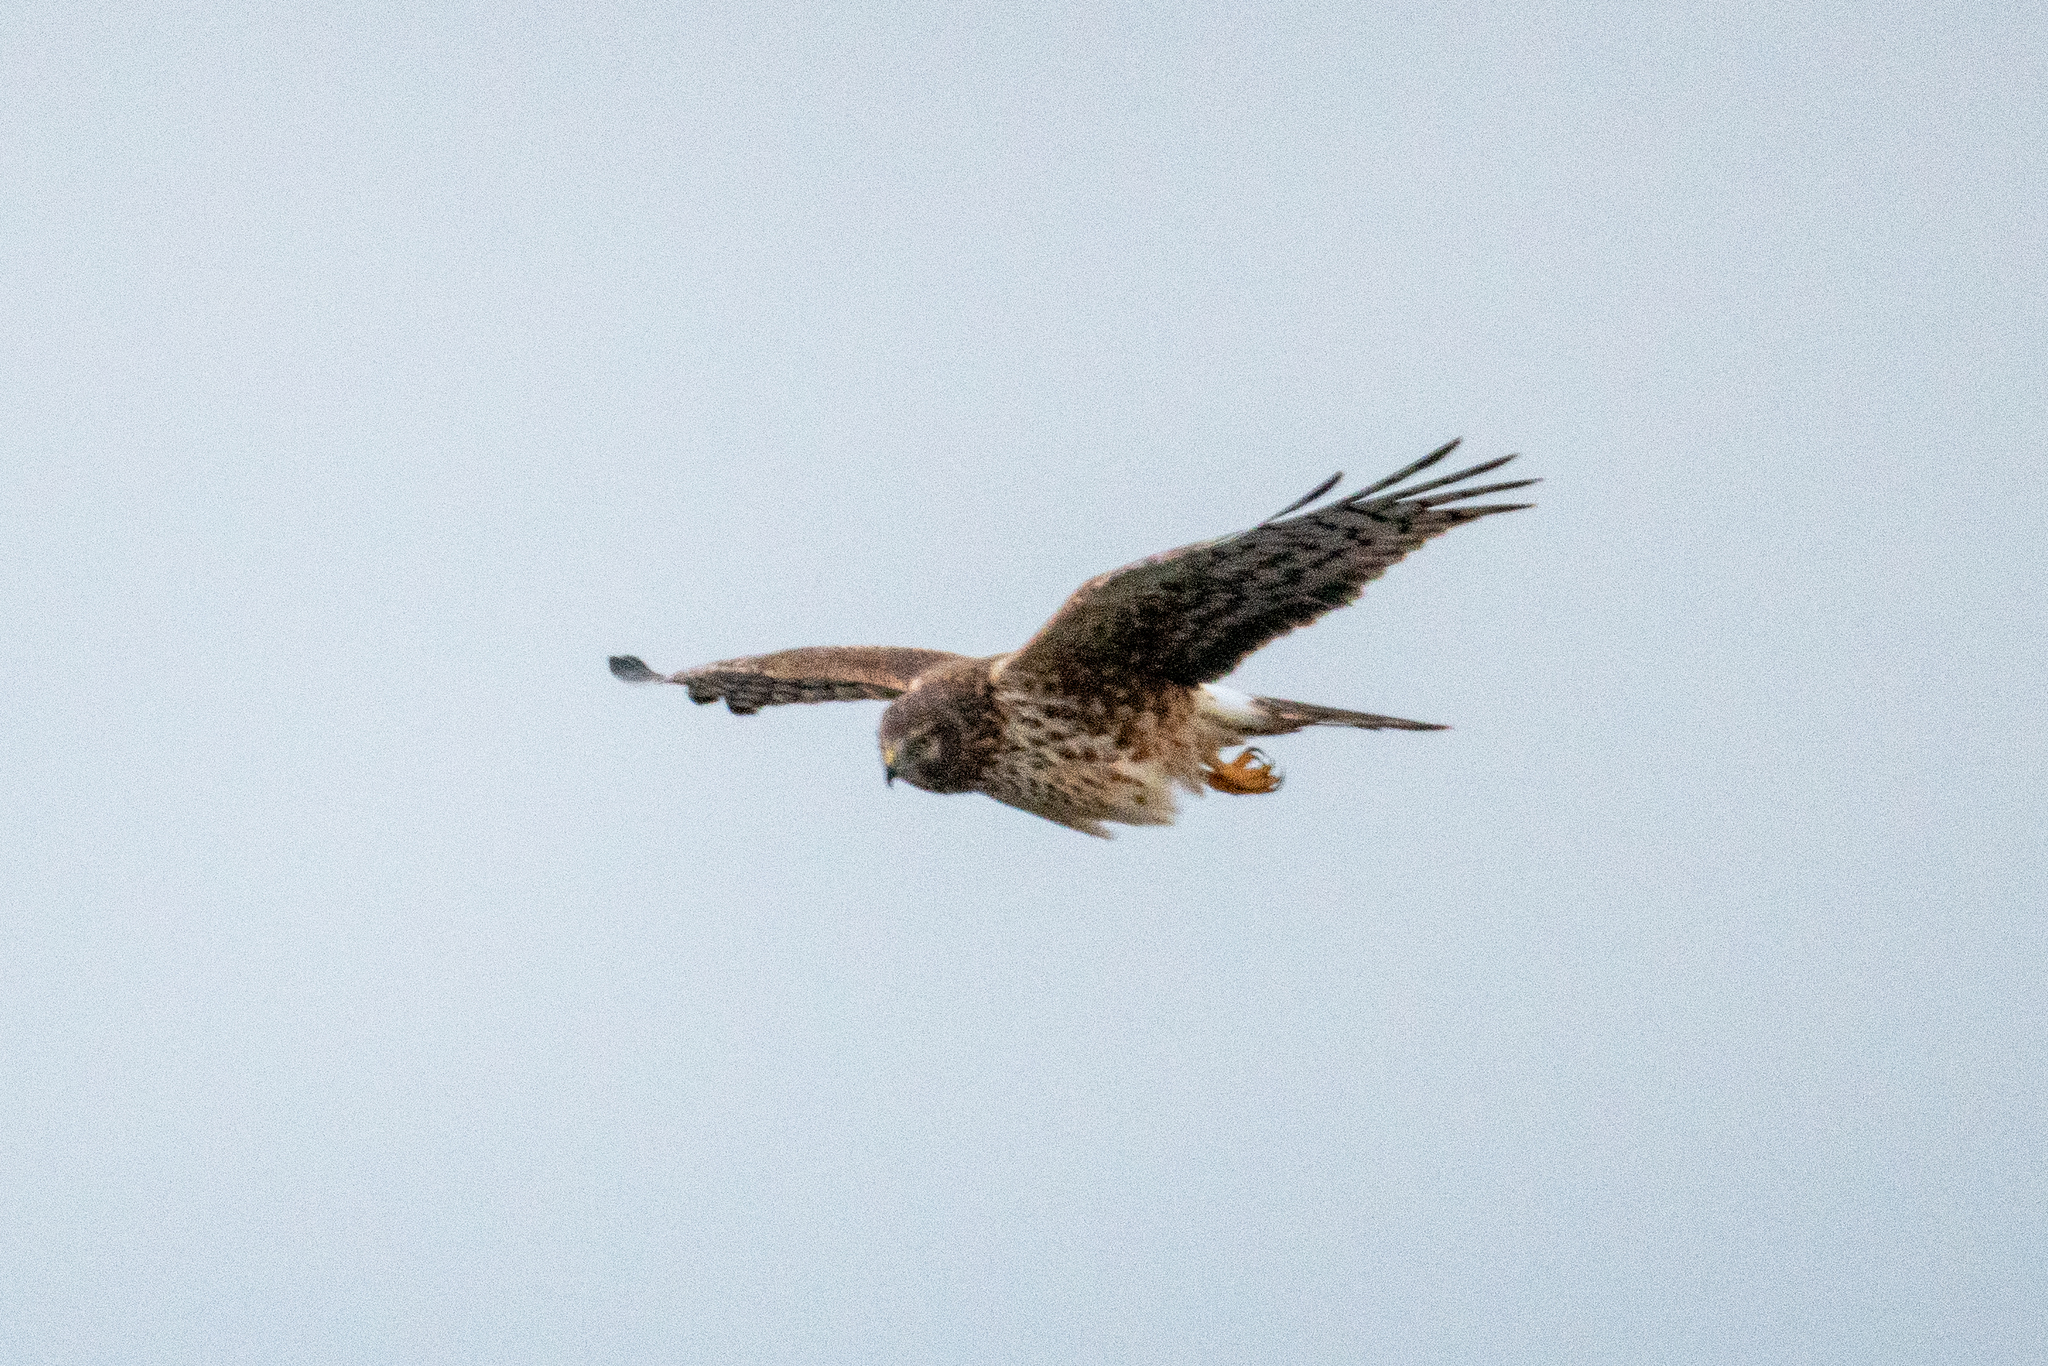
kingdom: Animalia
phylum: Chordata
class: Aves
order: Accipitriformes
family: Accipitridae
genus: Circus
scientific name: Circus cyaneus
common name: Hen harrier
